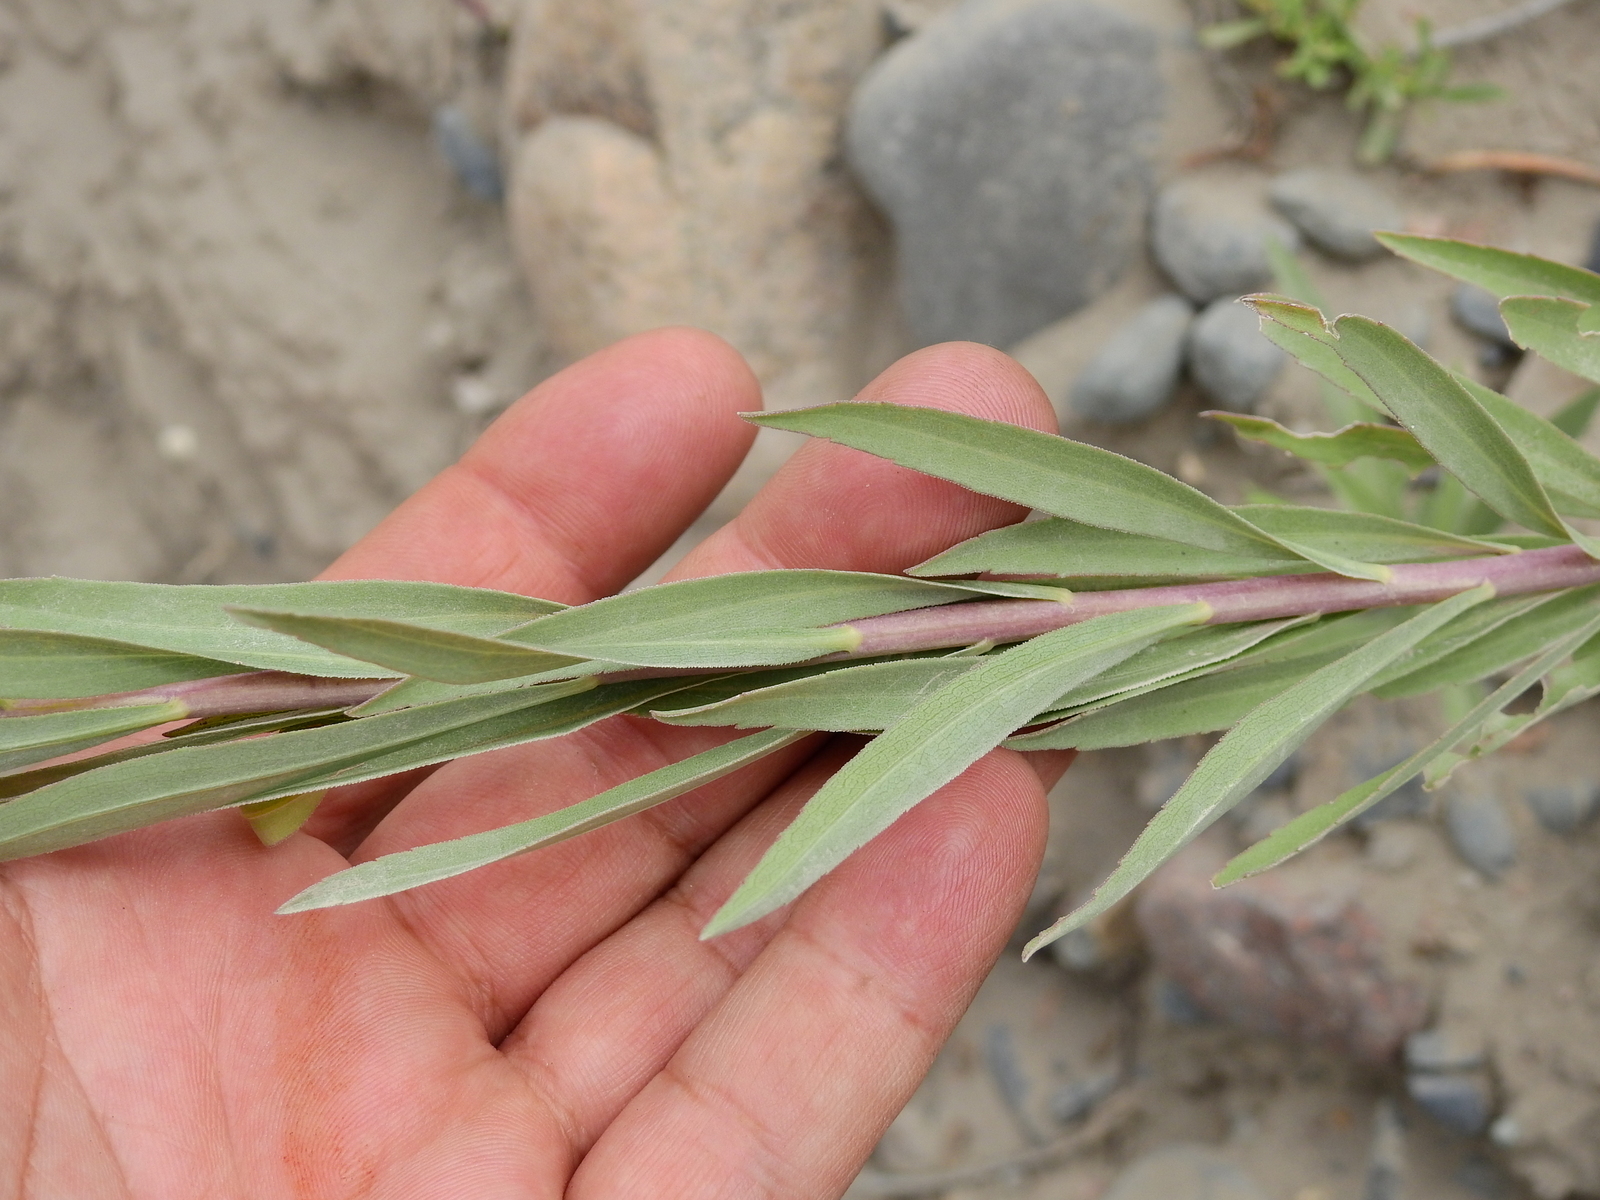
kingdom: Plantae
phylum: Tracheophyta
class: Magnoliopsida
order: Asterales
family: Asteraceae
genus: Solidago
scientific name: Solidago chilensis
